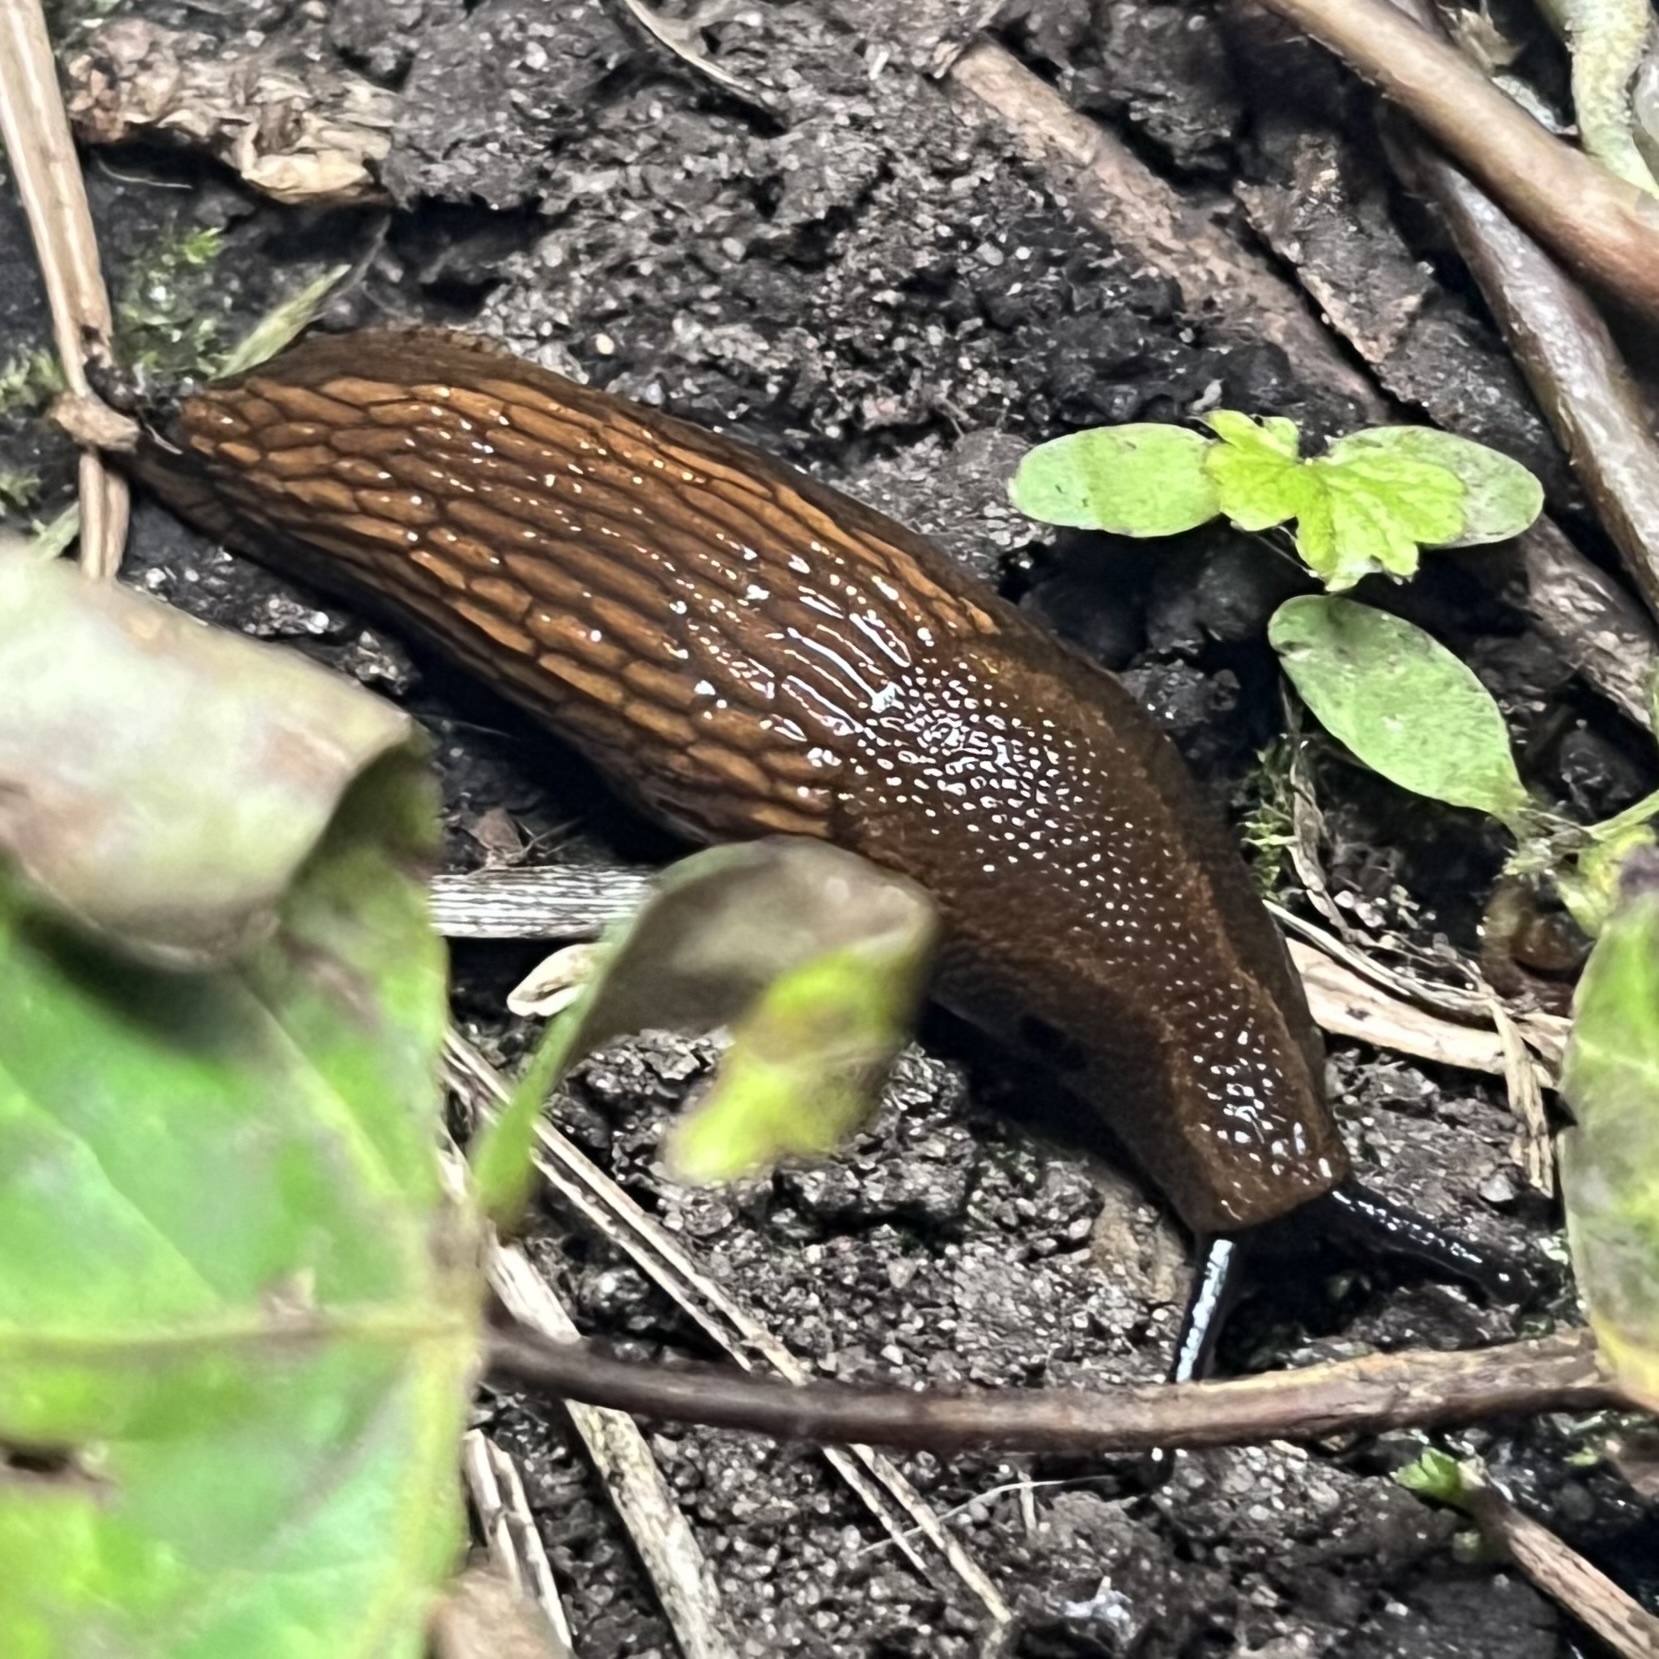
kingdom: Animalia
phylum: Mollusca
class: Gastropoda
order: Stylommatophora
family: Arionidae
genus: Arion
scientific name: Arion vulgaris
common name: Lusitanian slug
